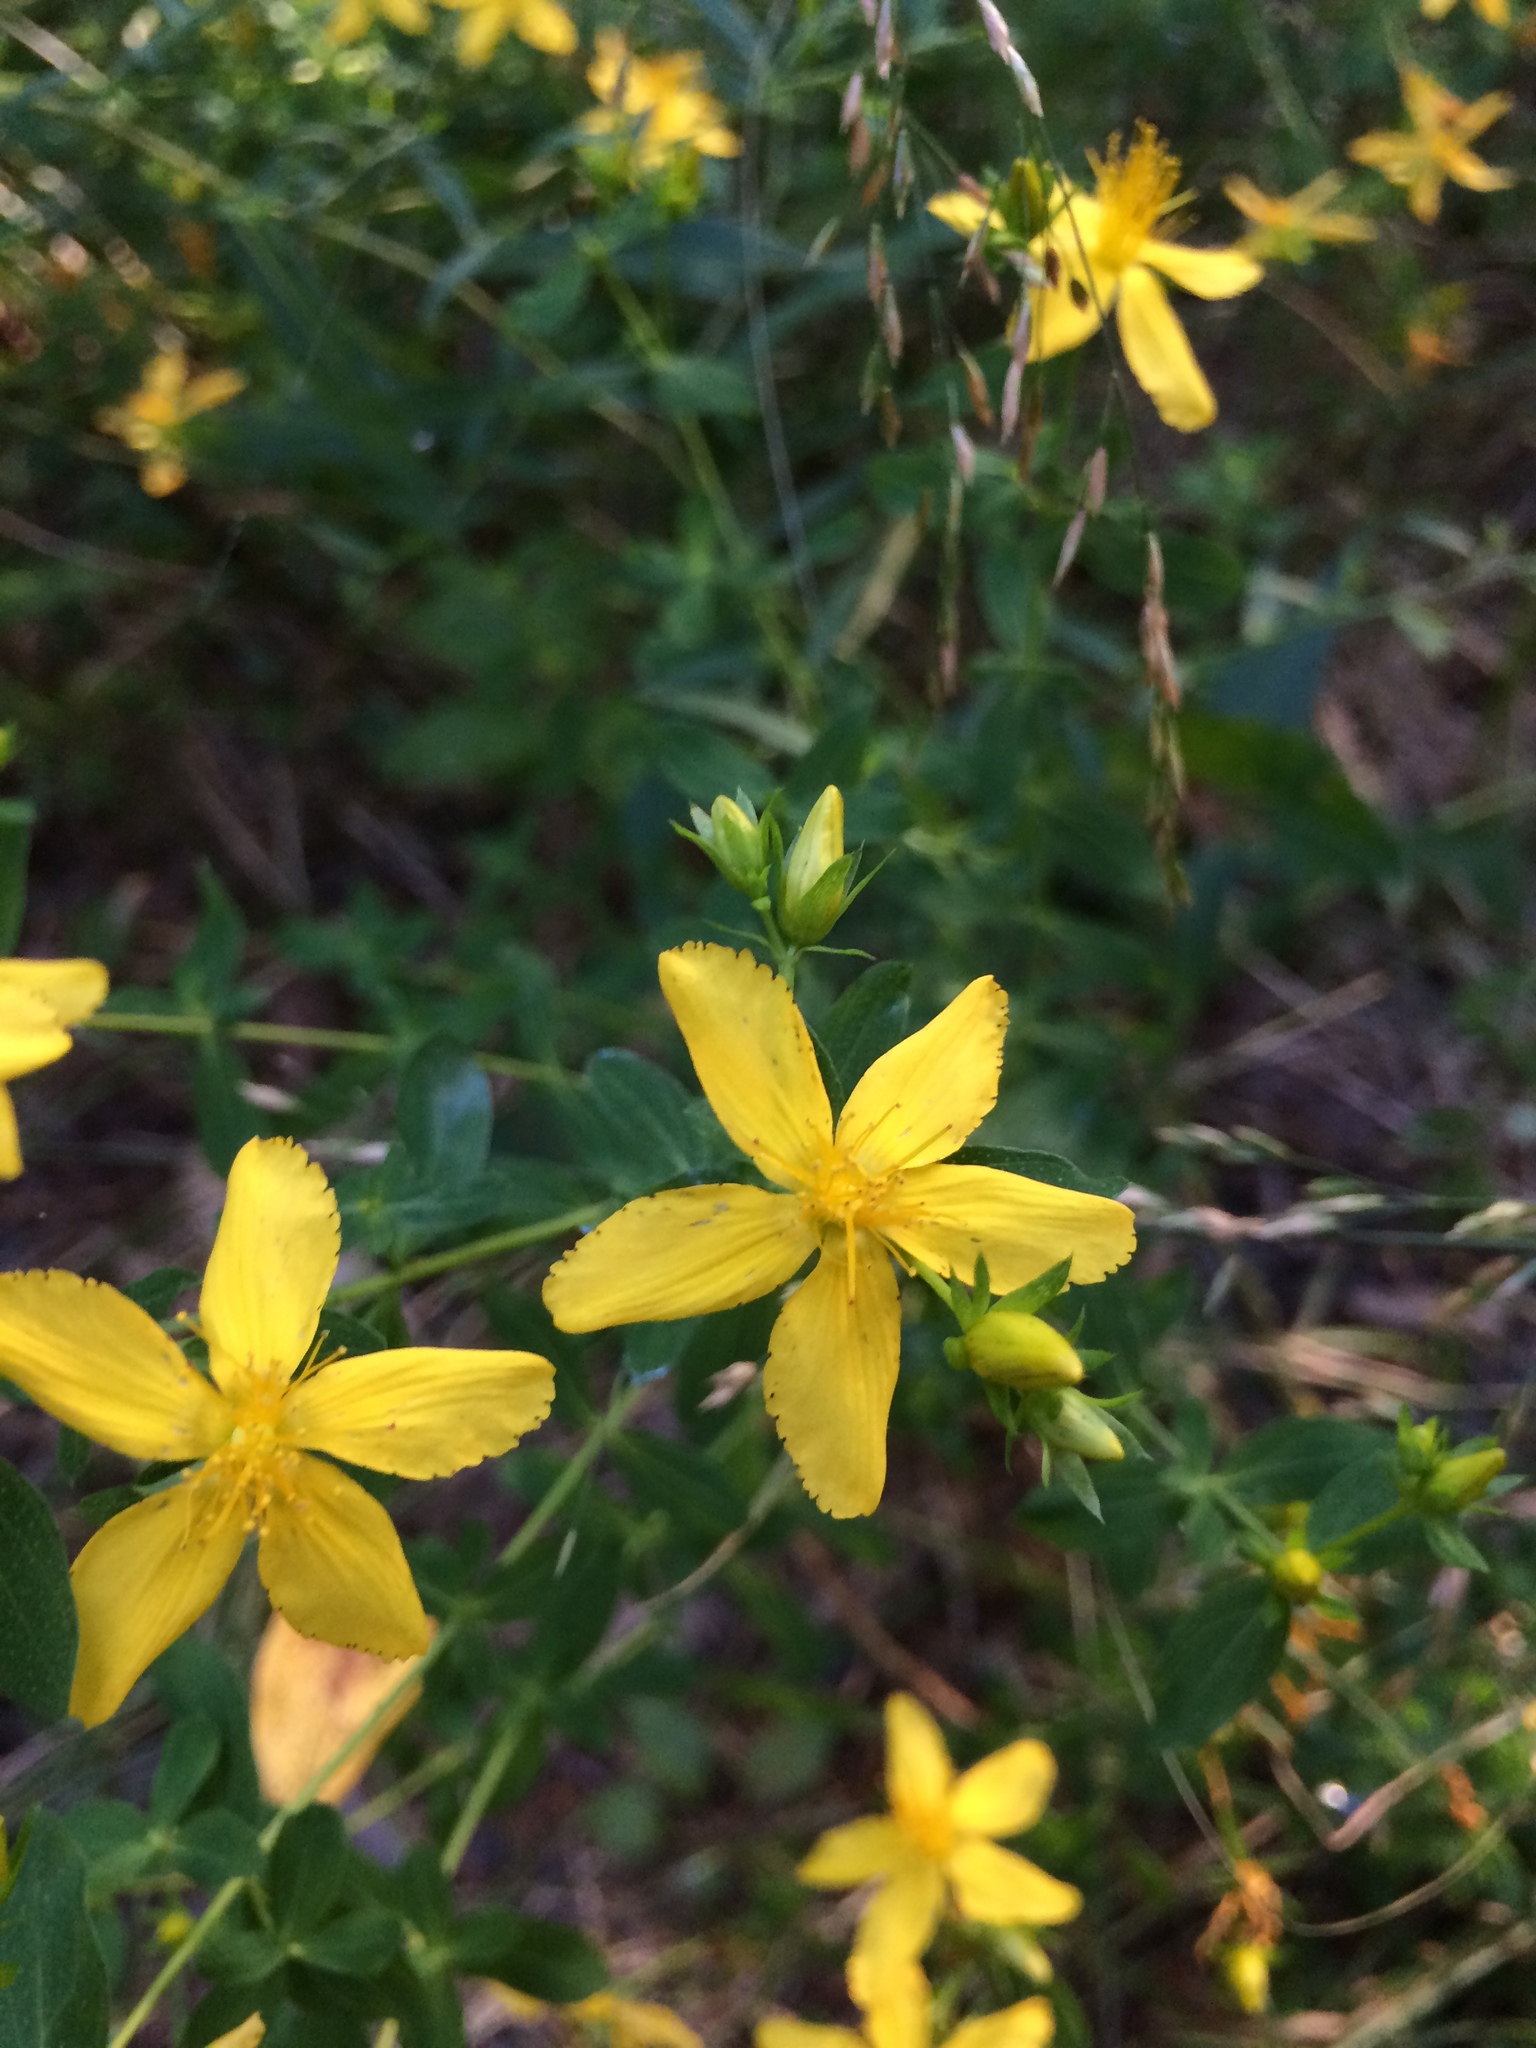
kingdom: Plantae
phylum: Tracheophyta
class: Magnoliopsida
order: Malpighiales
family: Hypericaceae
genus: Hypericum
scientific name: Hypericum perforatum
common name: Common st. johnswort
